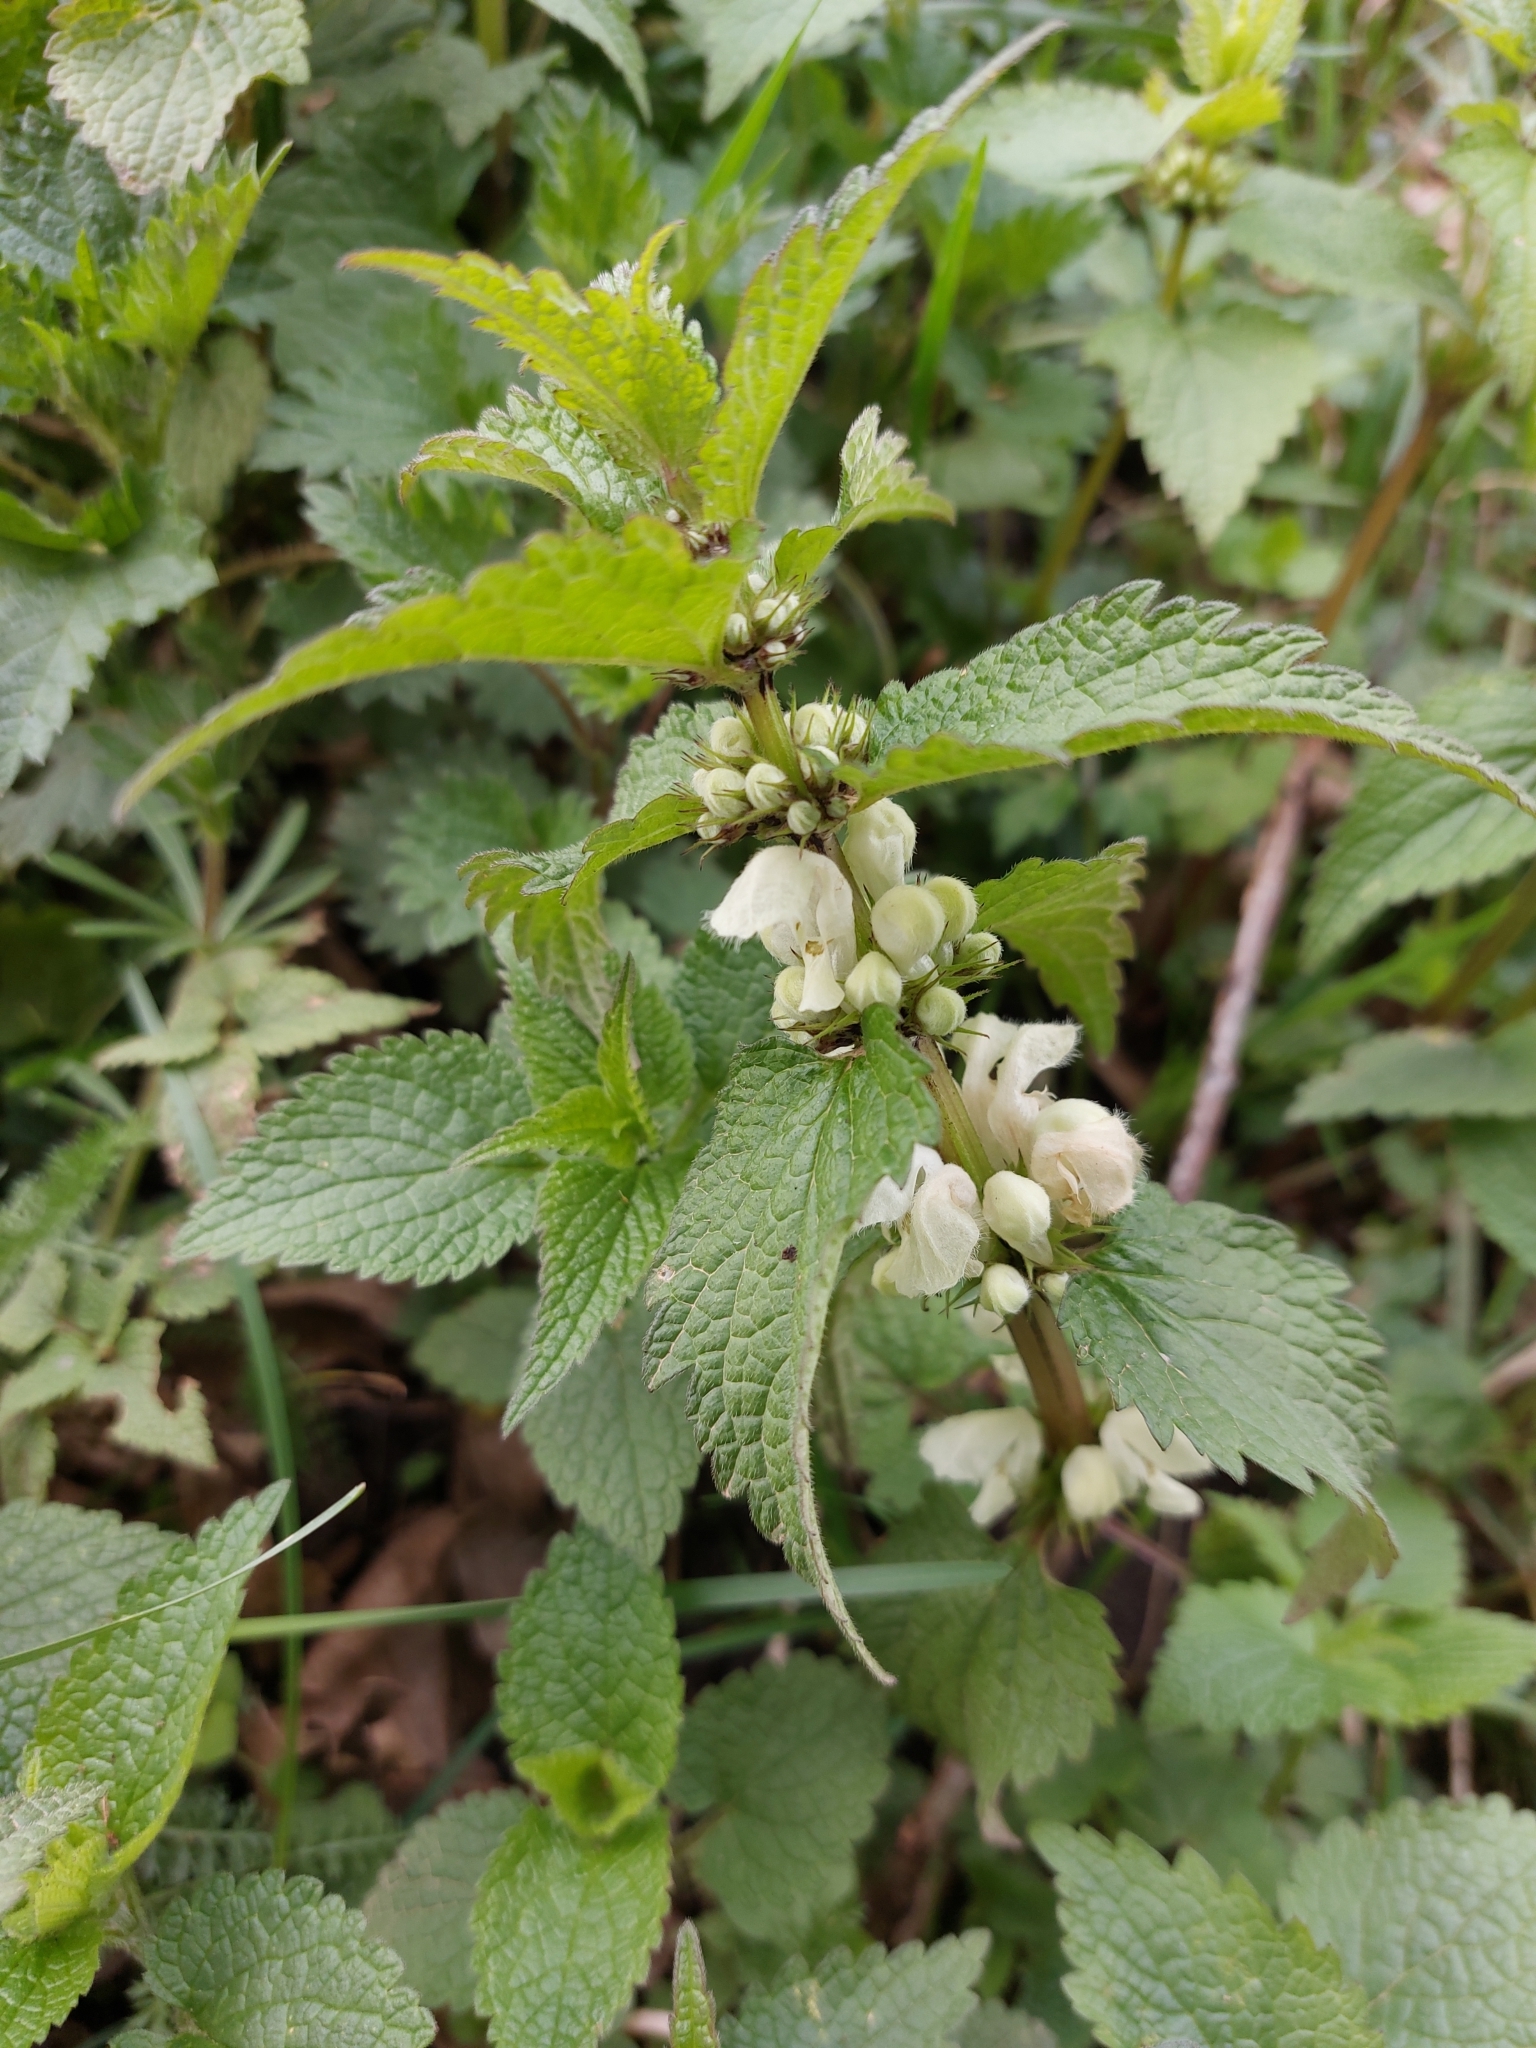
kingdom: Plantae
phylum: Tracheophyta
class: Magnoliopsida
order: Lamiales
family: Lamiaceae
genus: Lamium
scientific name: Lamium album
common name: White dead-nettle
